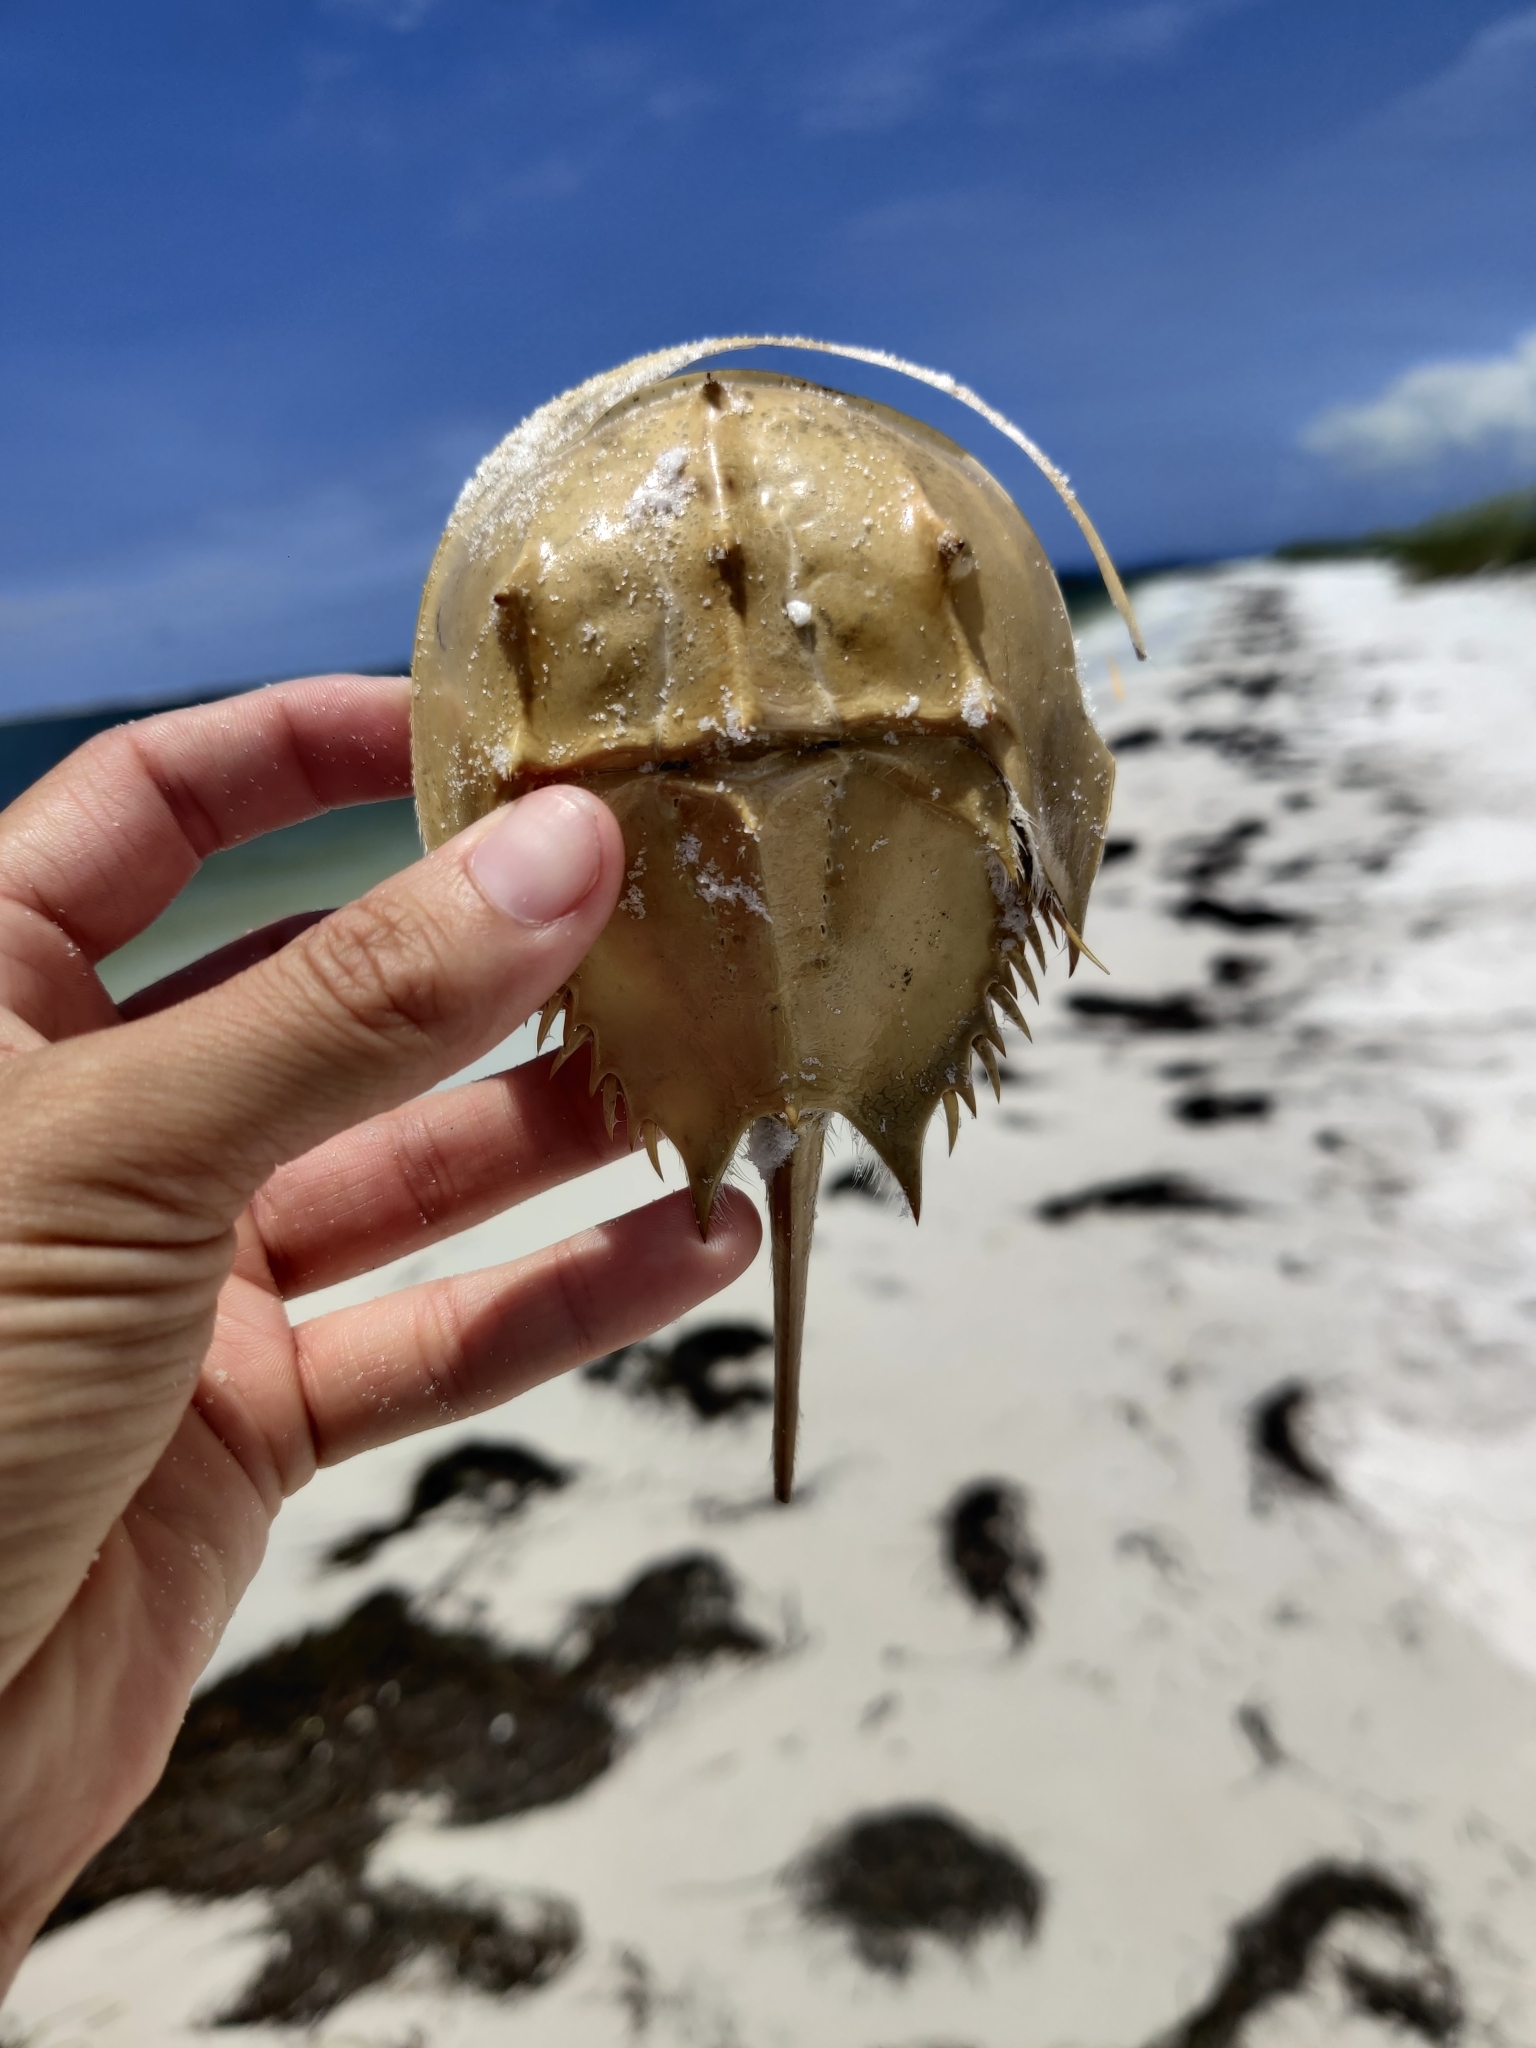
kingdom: Animalia
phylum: Arthropoda
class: Merostomata
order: Xiphosurida
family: Limulidae
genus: Limulus
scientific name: Limulus polyphemus
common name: Horseshoe crab
